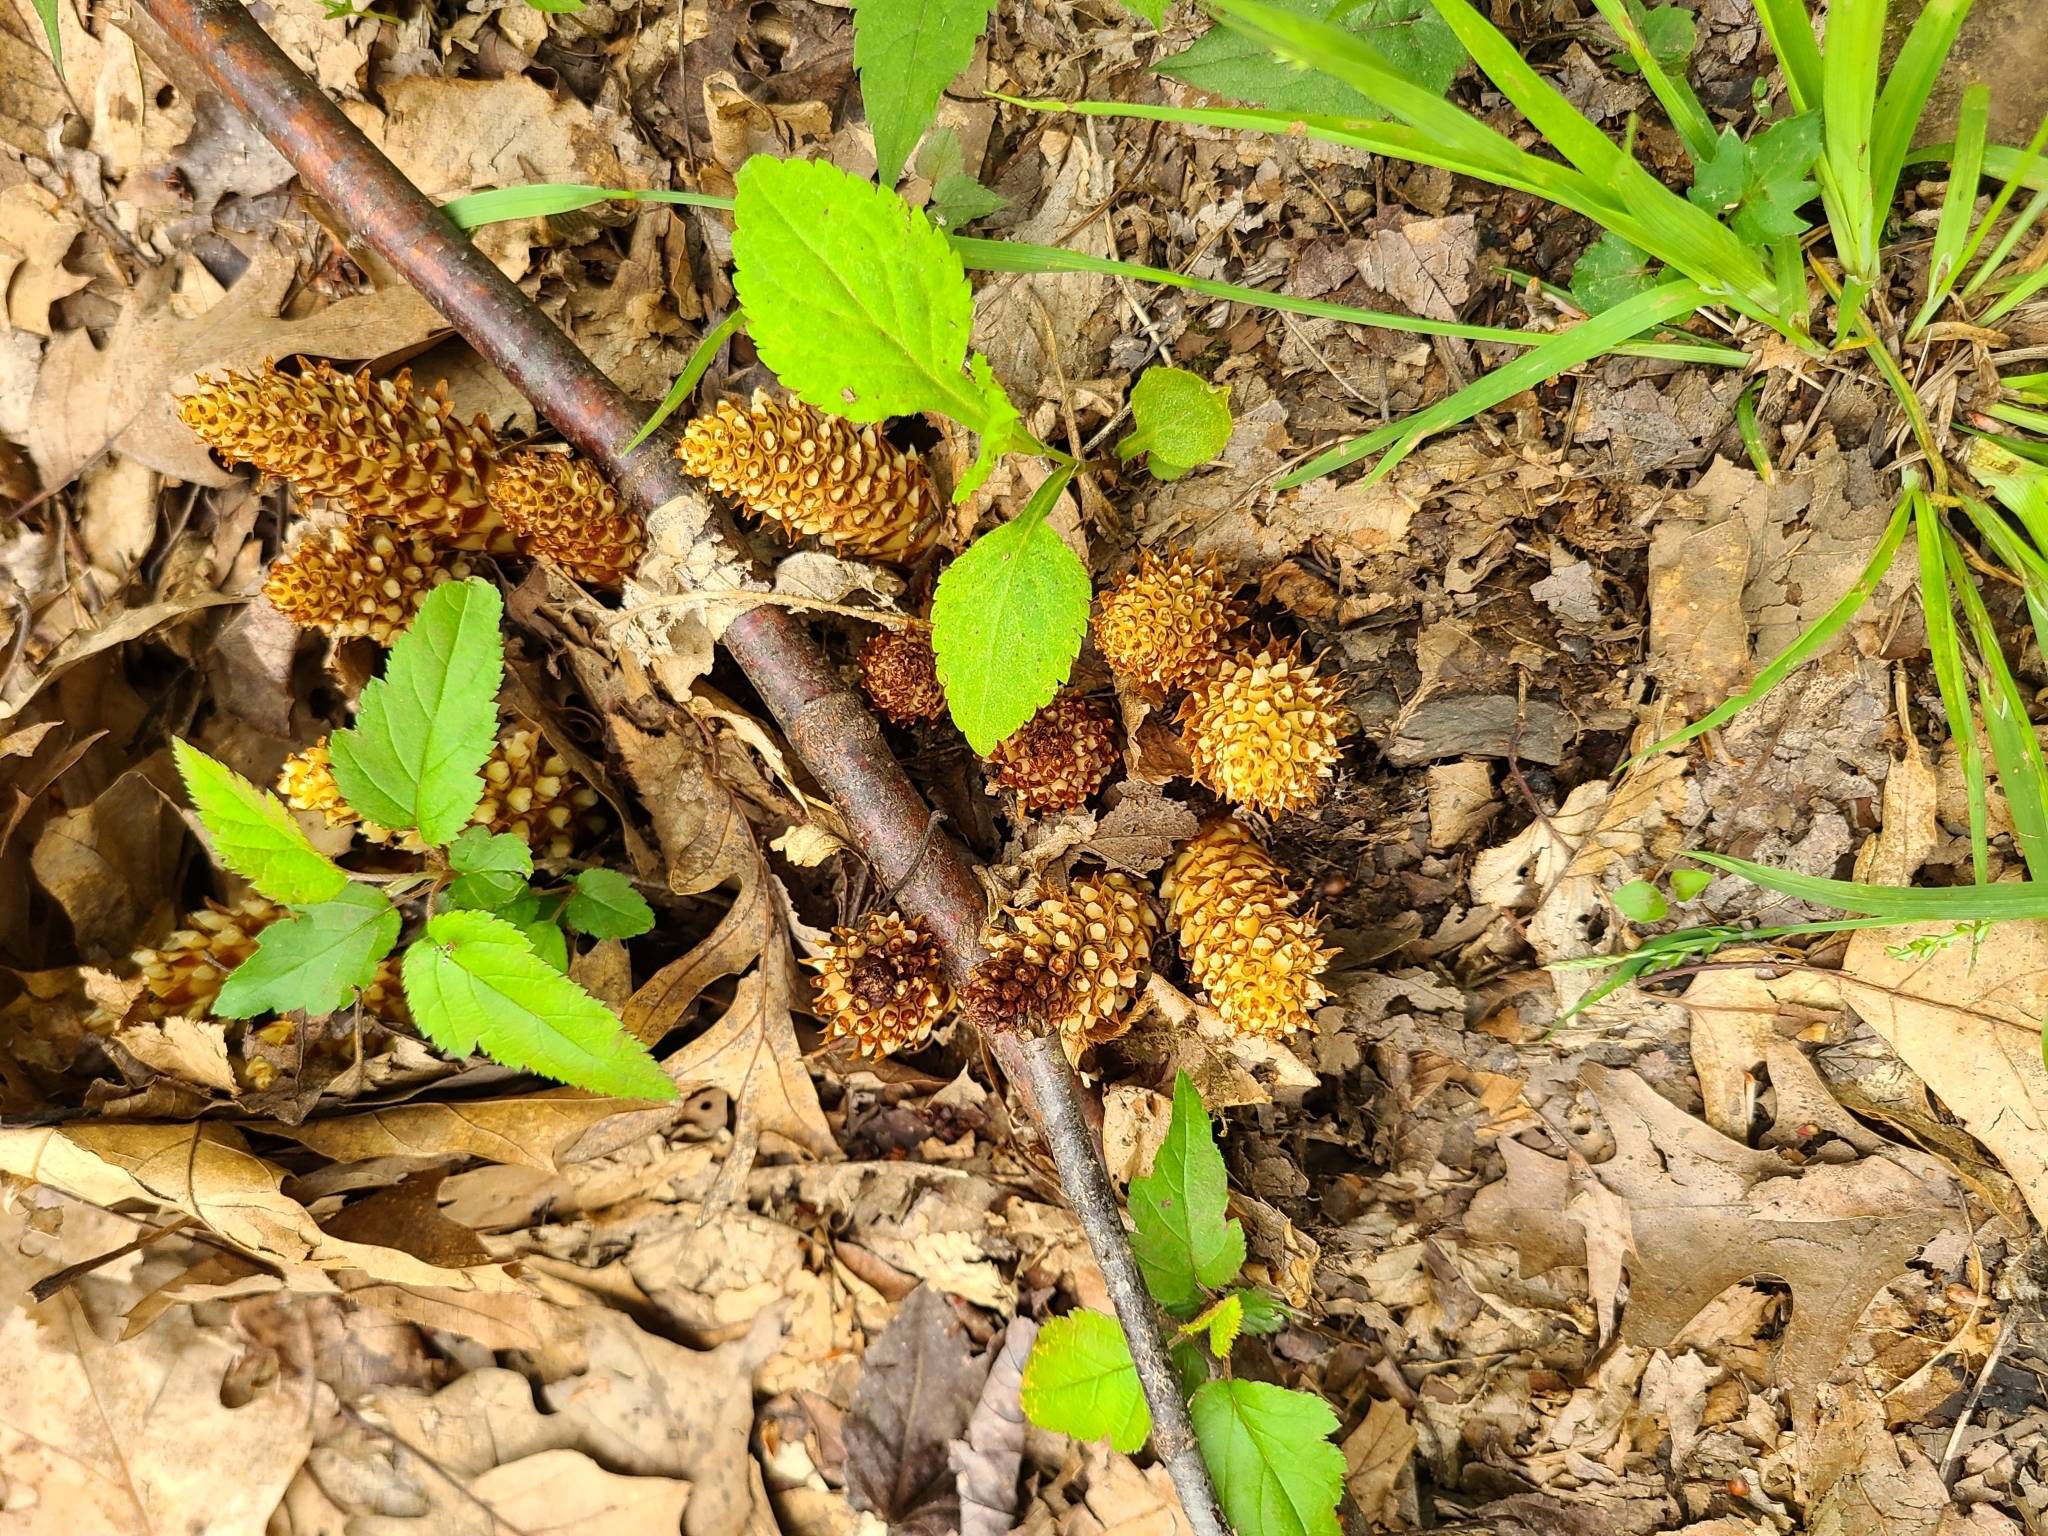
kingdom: Plantae
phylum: Tracheophyta
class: Magnoliopsida
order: Lamiales
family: Orobanchaceae
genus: Conopholis
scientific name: Conopholis americana
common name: American cancer-root
